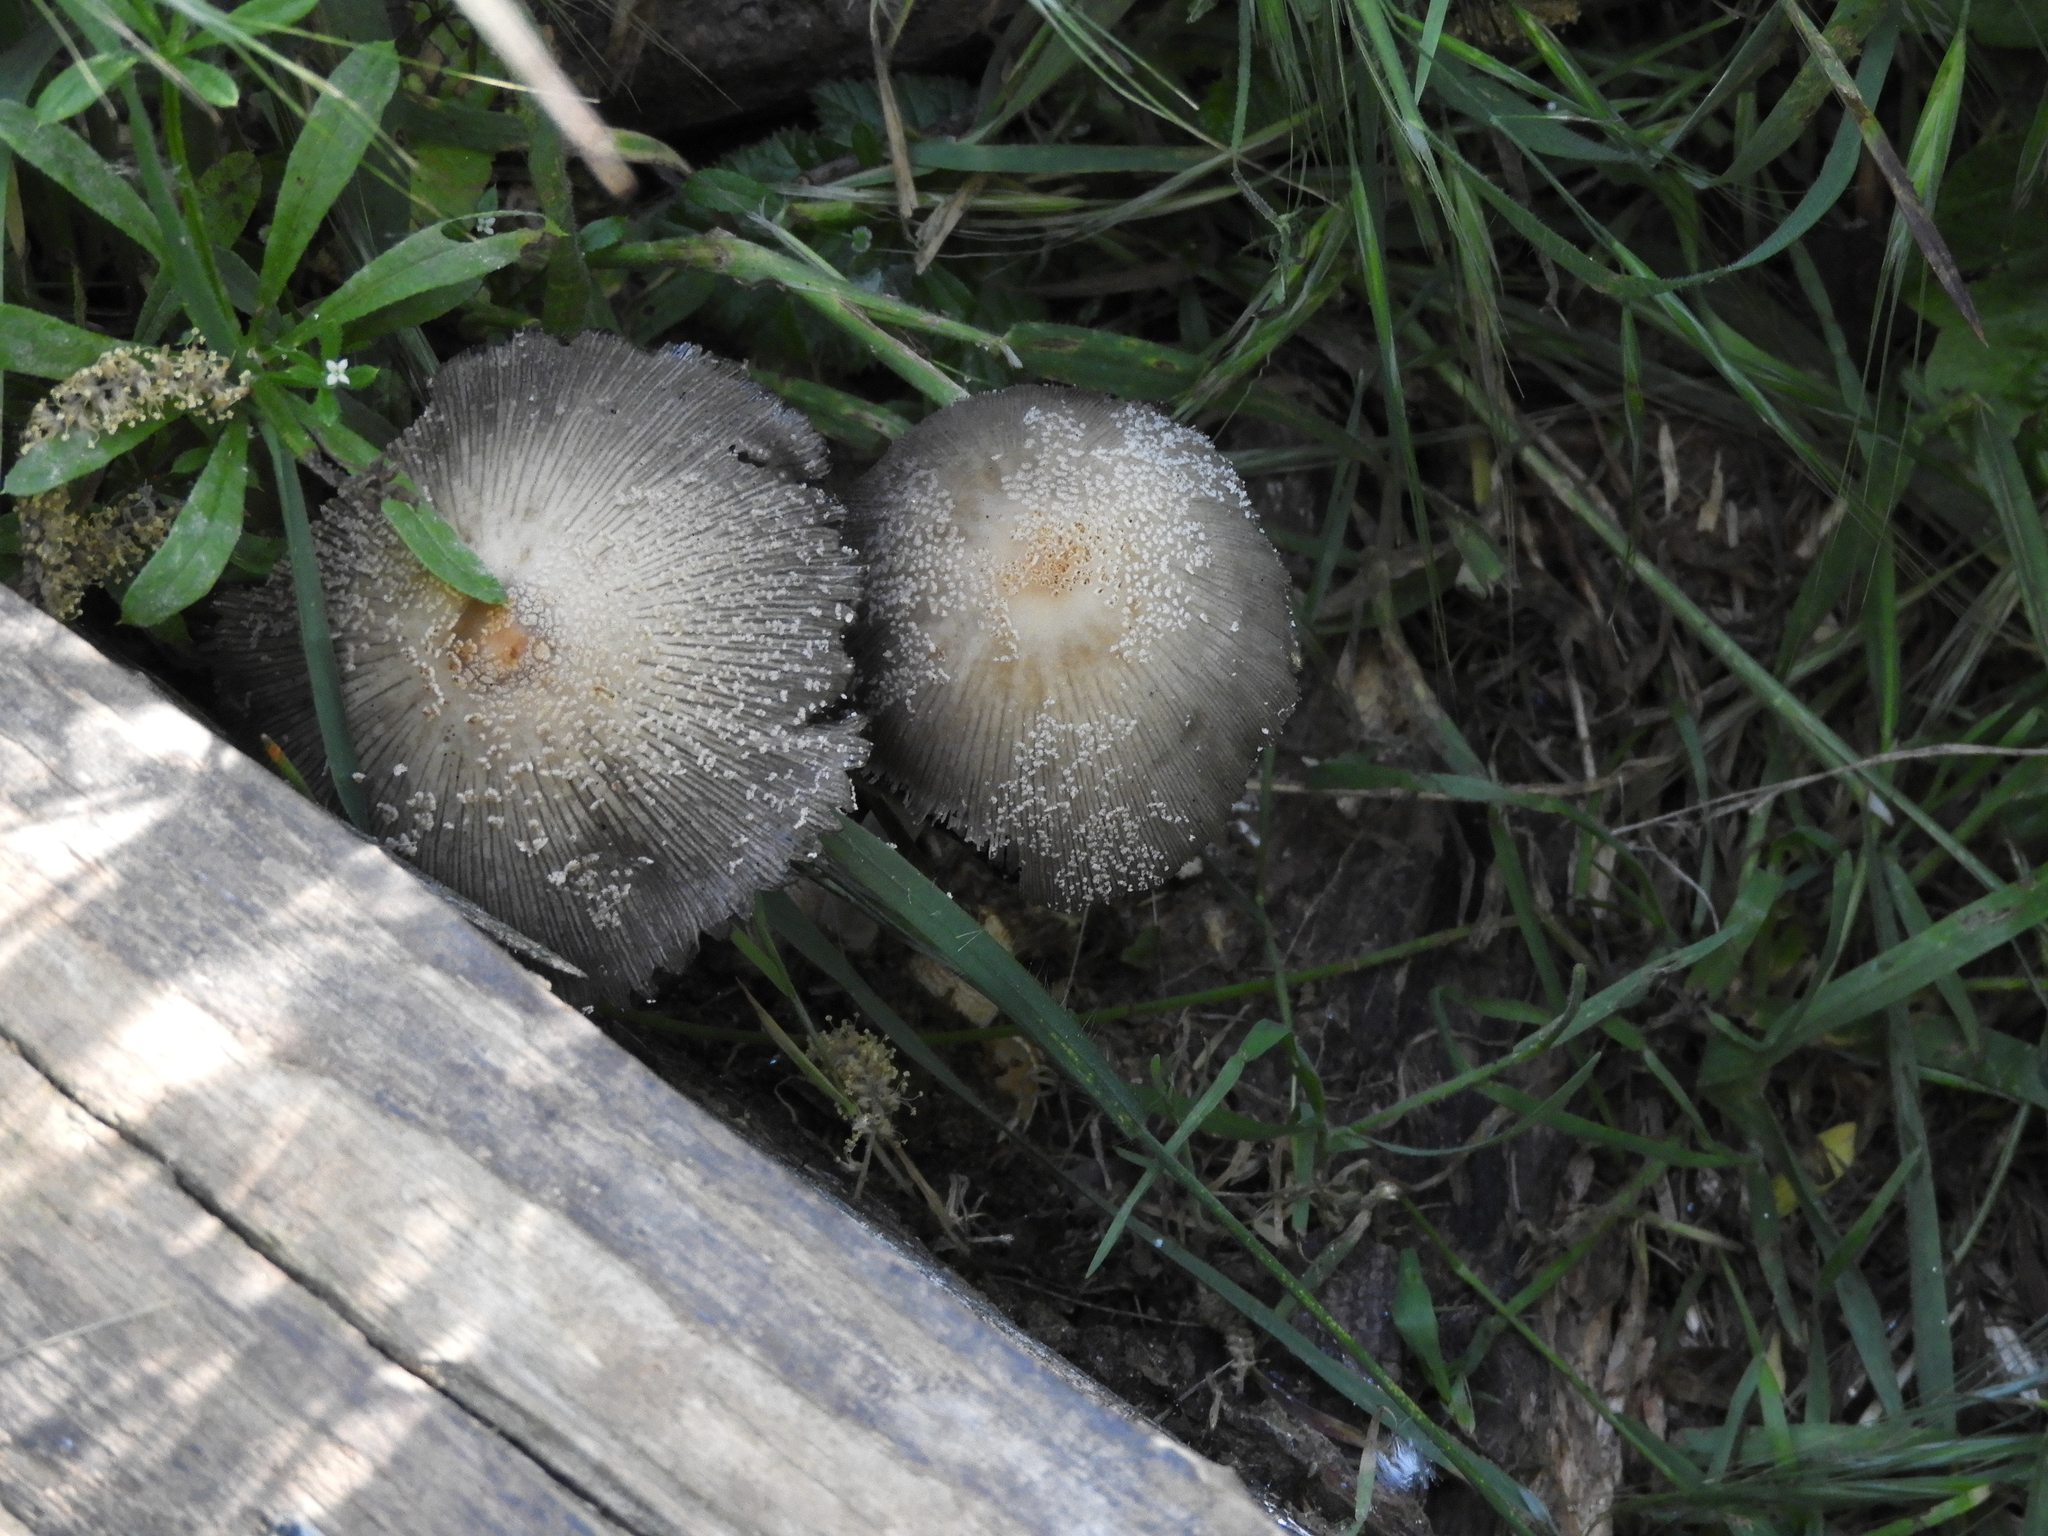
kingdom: Fungi
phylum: Basidiomycota
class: Agaricomycetes
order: Agaricales
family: Psathyrellaceae
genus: Coprinopsis
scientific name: Coprinopsis lagopus
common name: Hare'sfoot inkcap
